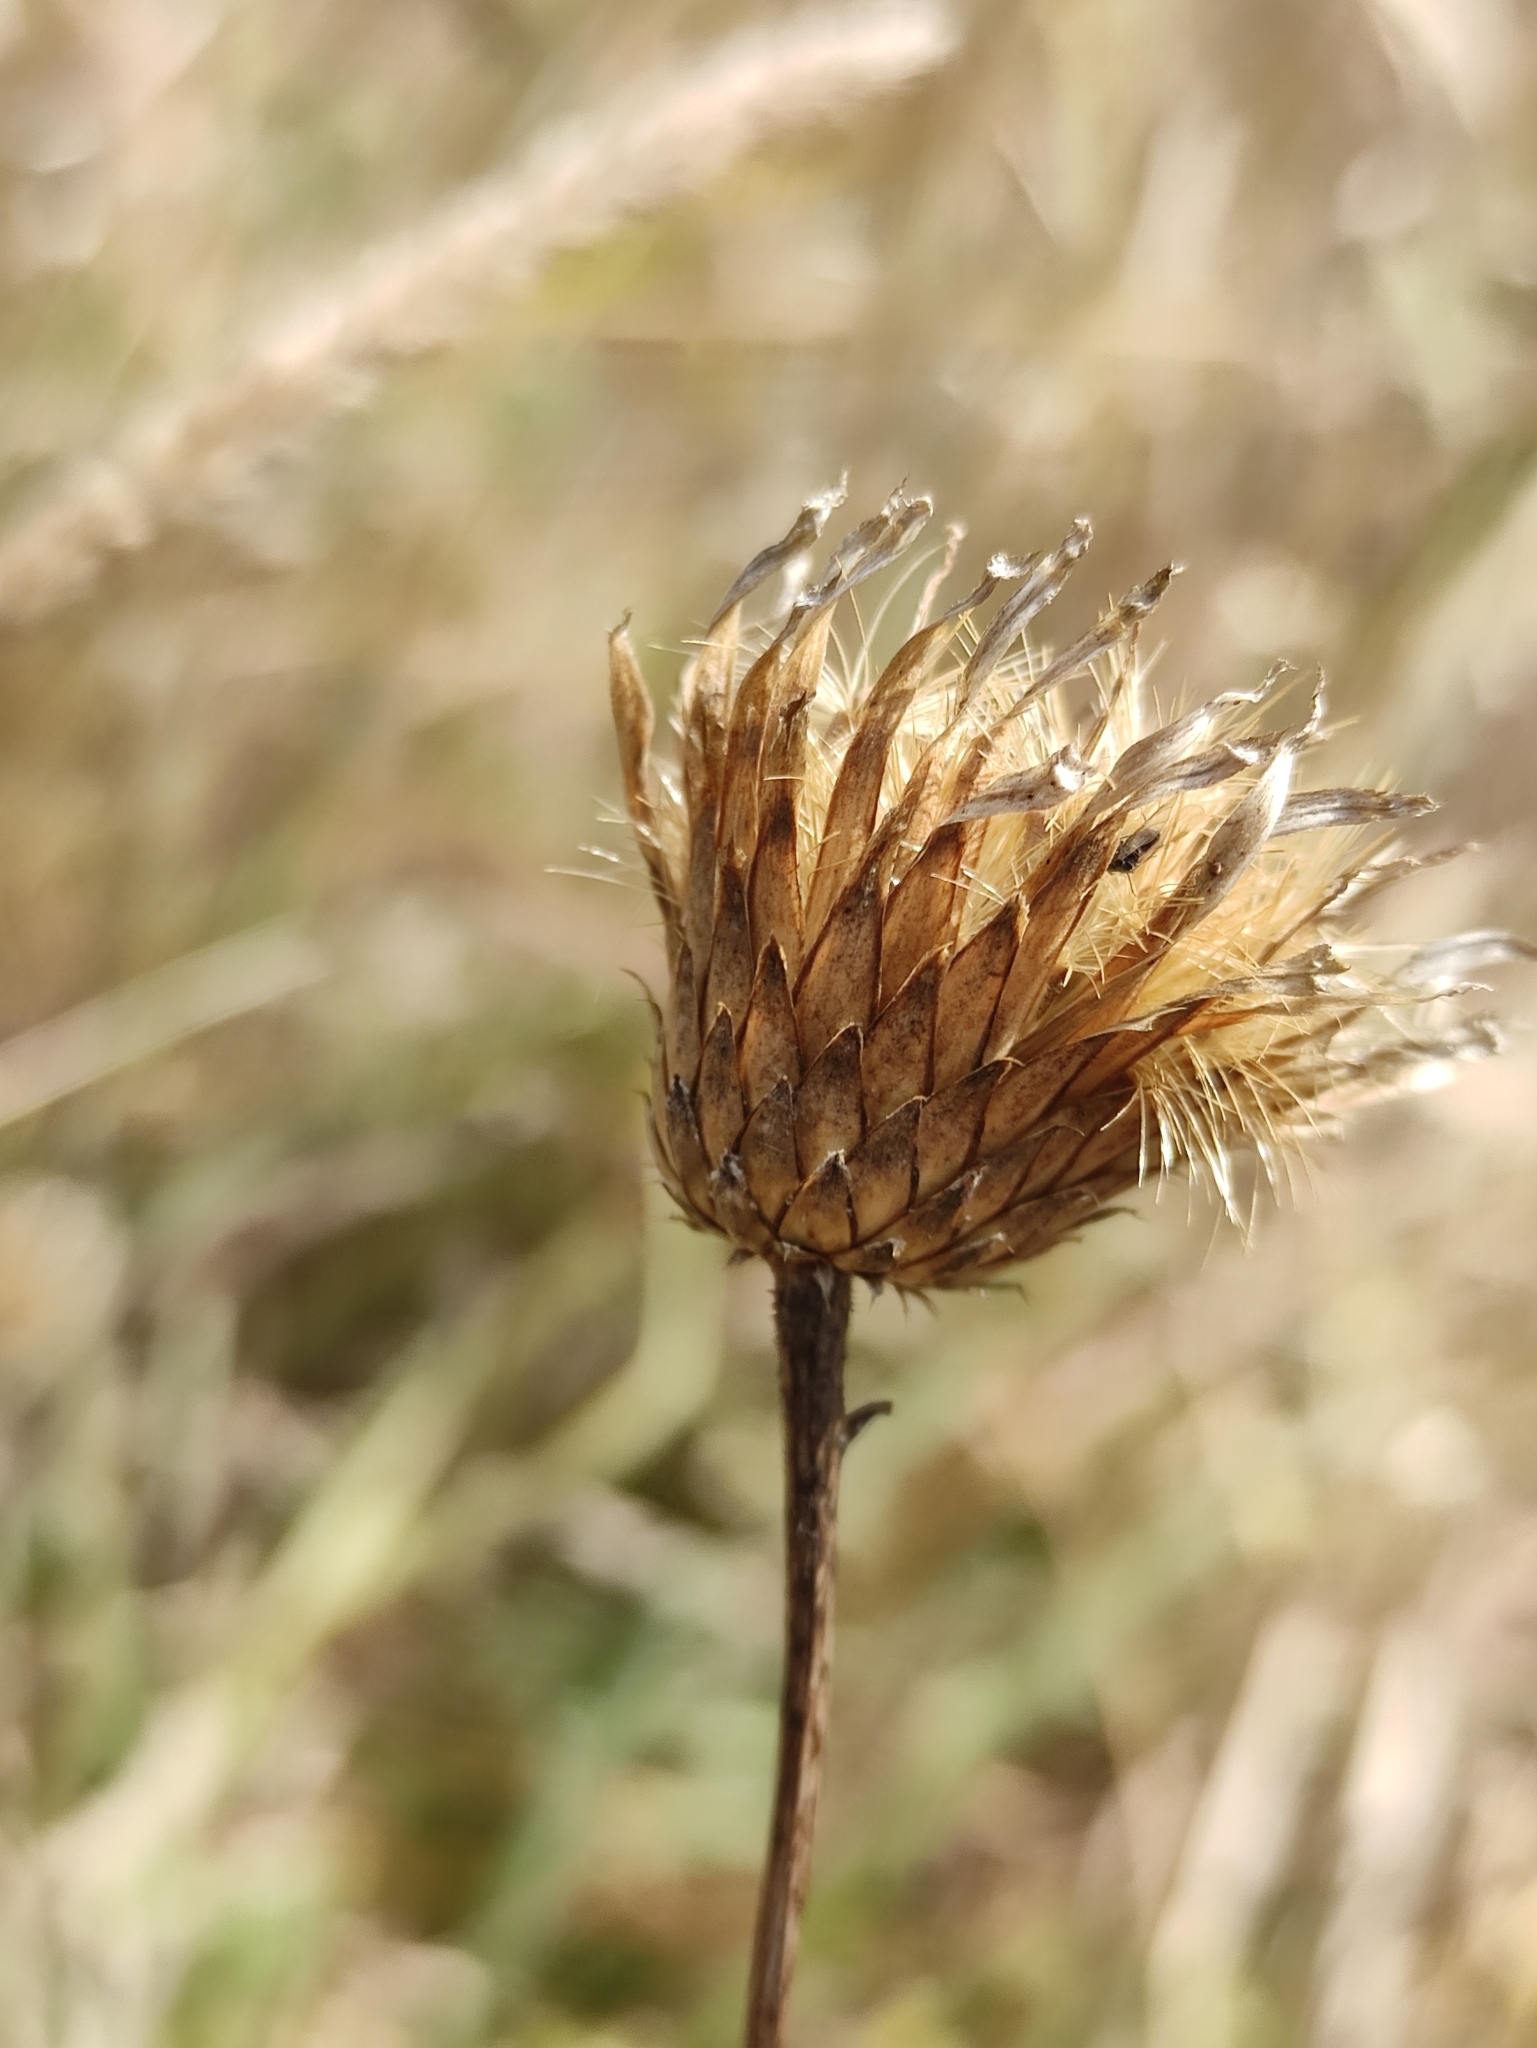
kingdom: Plantae
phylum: Tracheophyta
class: Magnoliopsida
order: Asterales
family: Asteraceae
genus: Klasea
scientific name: Klasea centauroides
